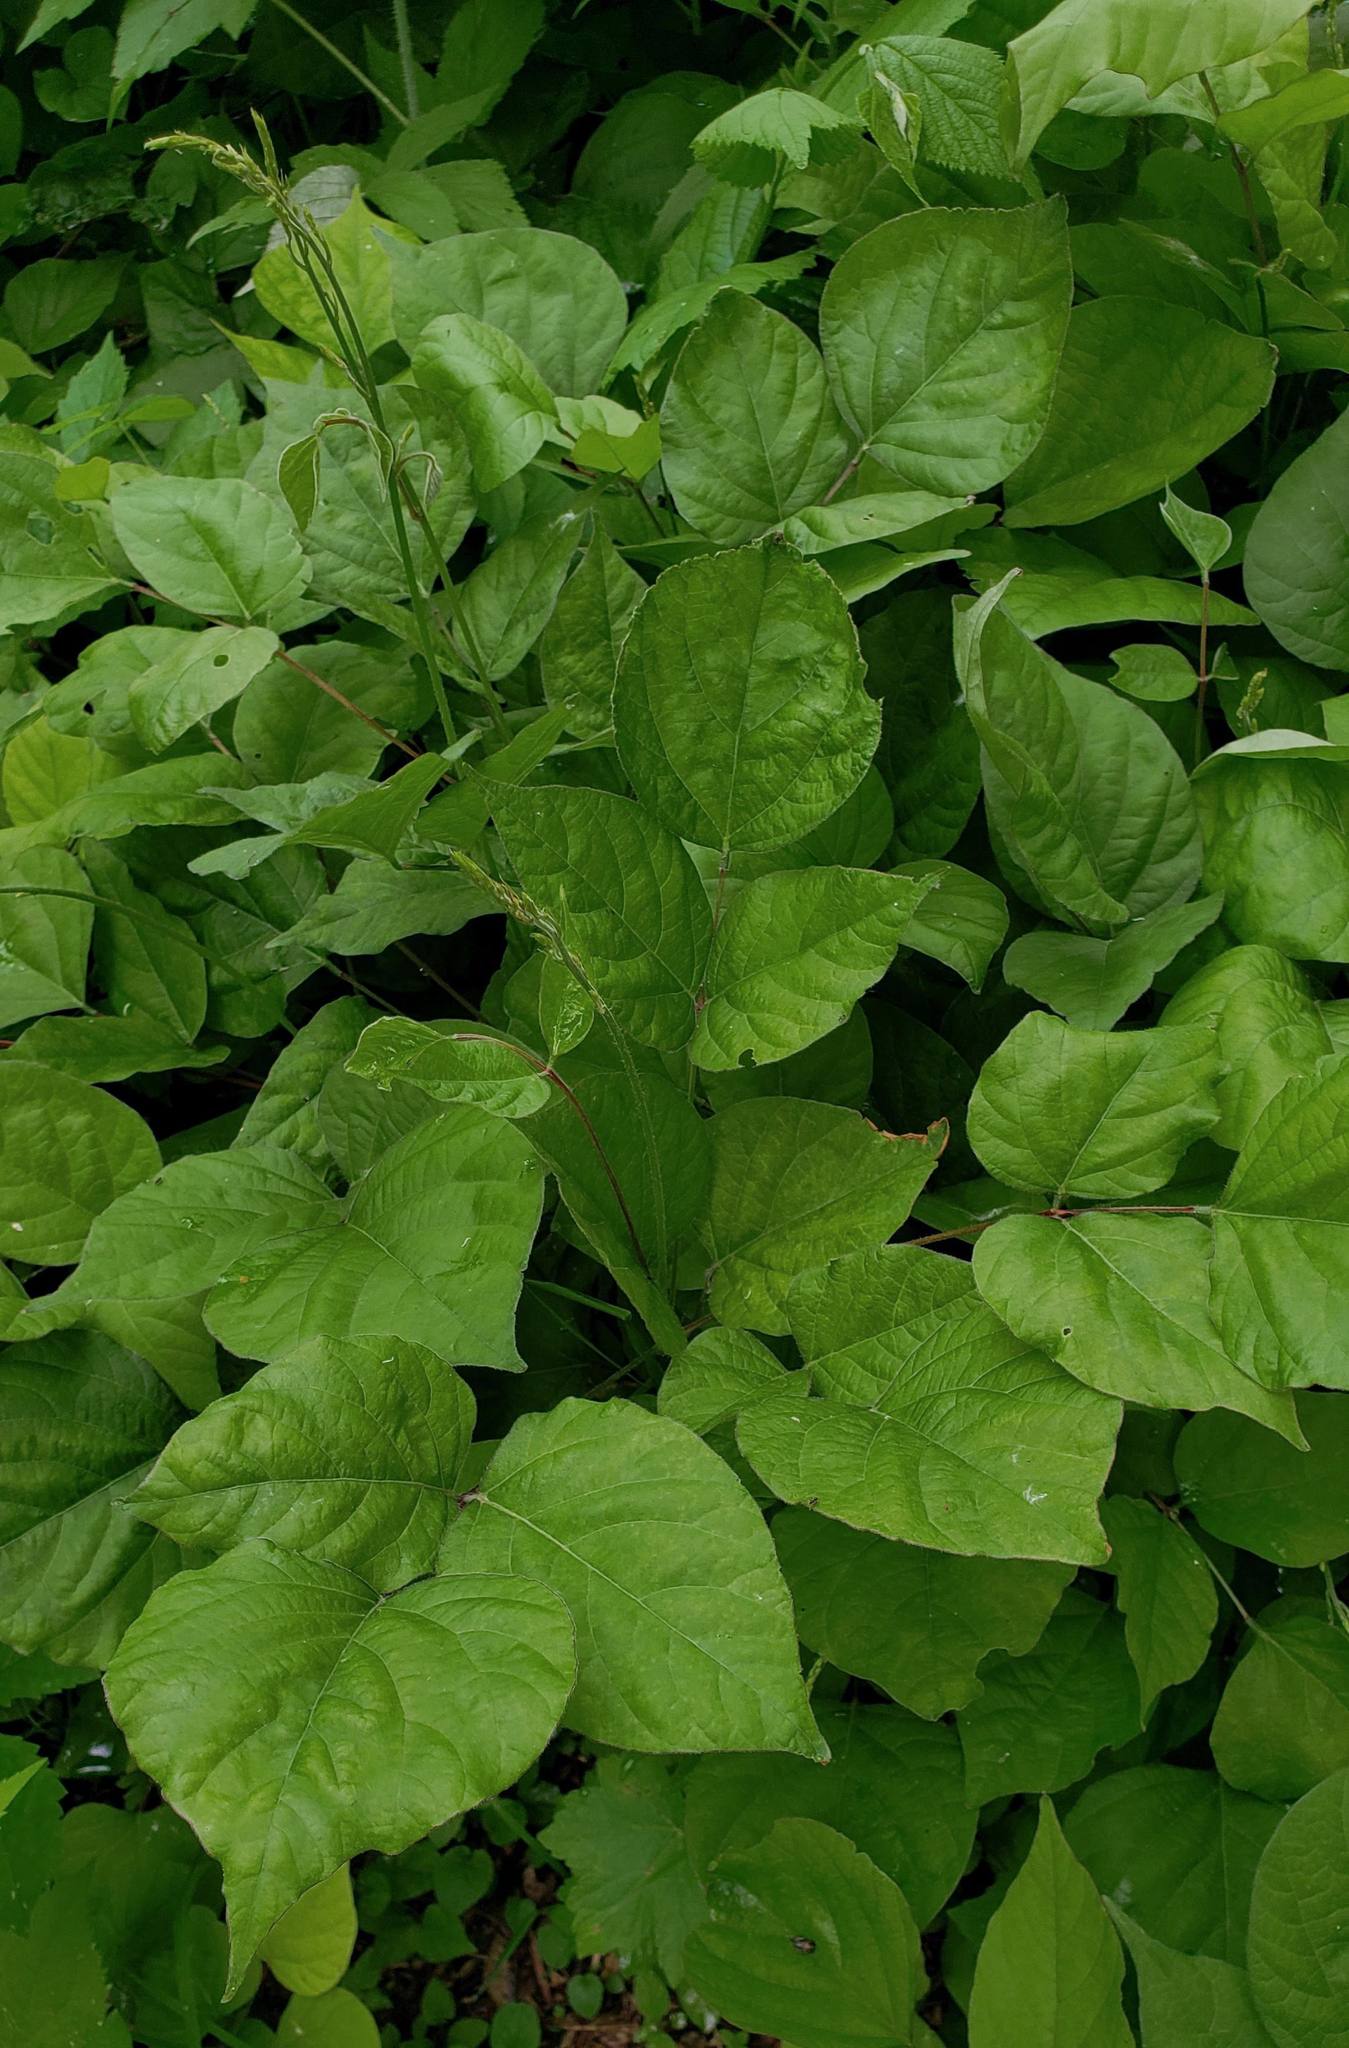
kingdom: Plantae
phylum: Tracheophyta
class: Magnoliopsida
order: Fabales
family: Fabaceae
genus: Hylodesmum
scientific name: Hylodesmum glutinosum
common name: Clustered-leaved tick-trefoil
